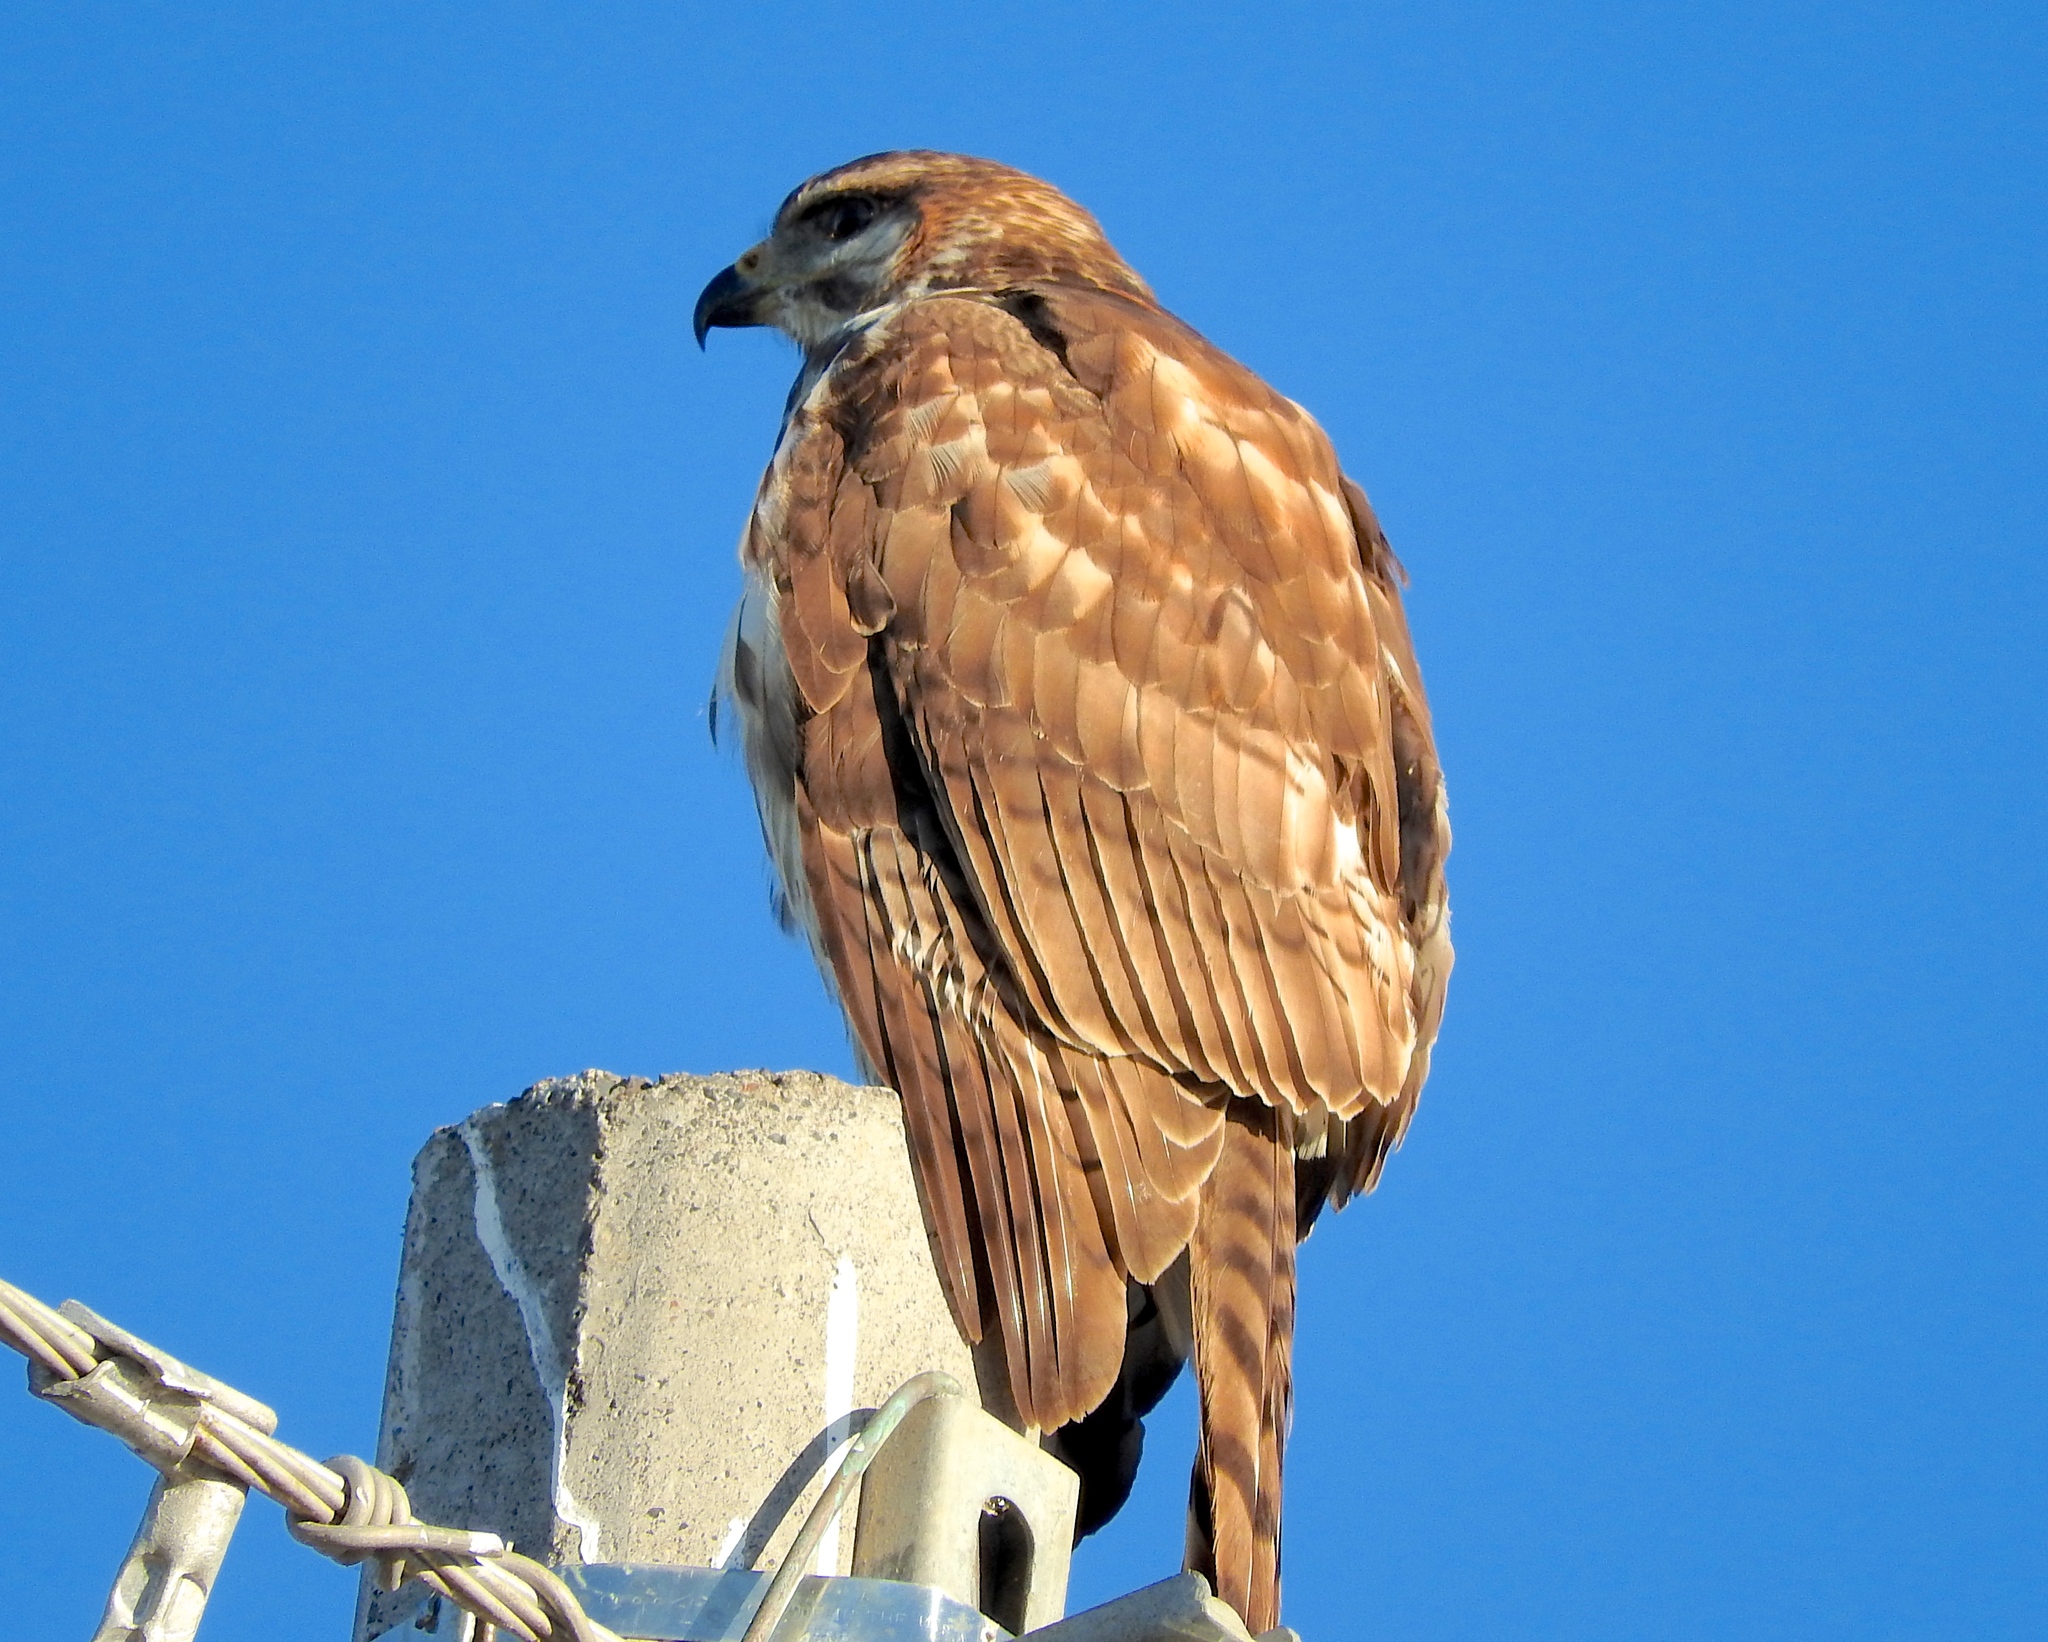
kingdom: Animalia
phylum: Chordata
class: Aves
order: Accipitriformes
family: Accipitridae
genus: Buteo
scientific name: Buteo nitidus
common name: Grey-lined hawk
